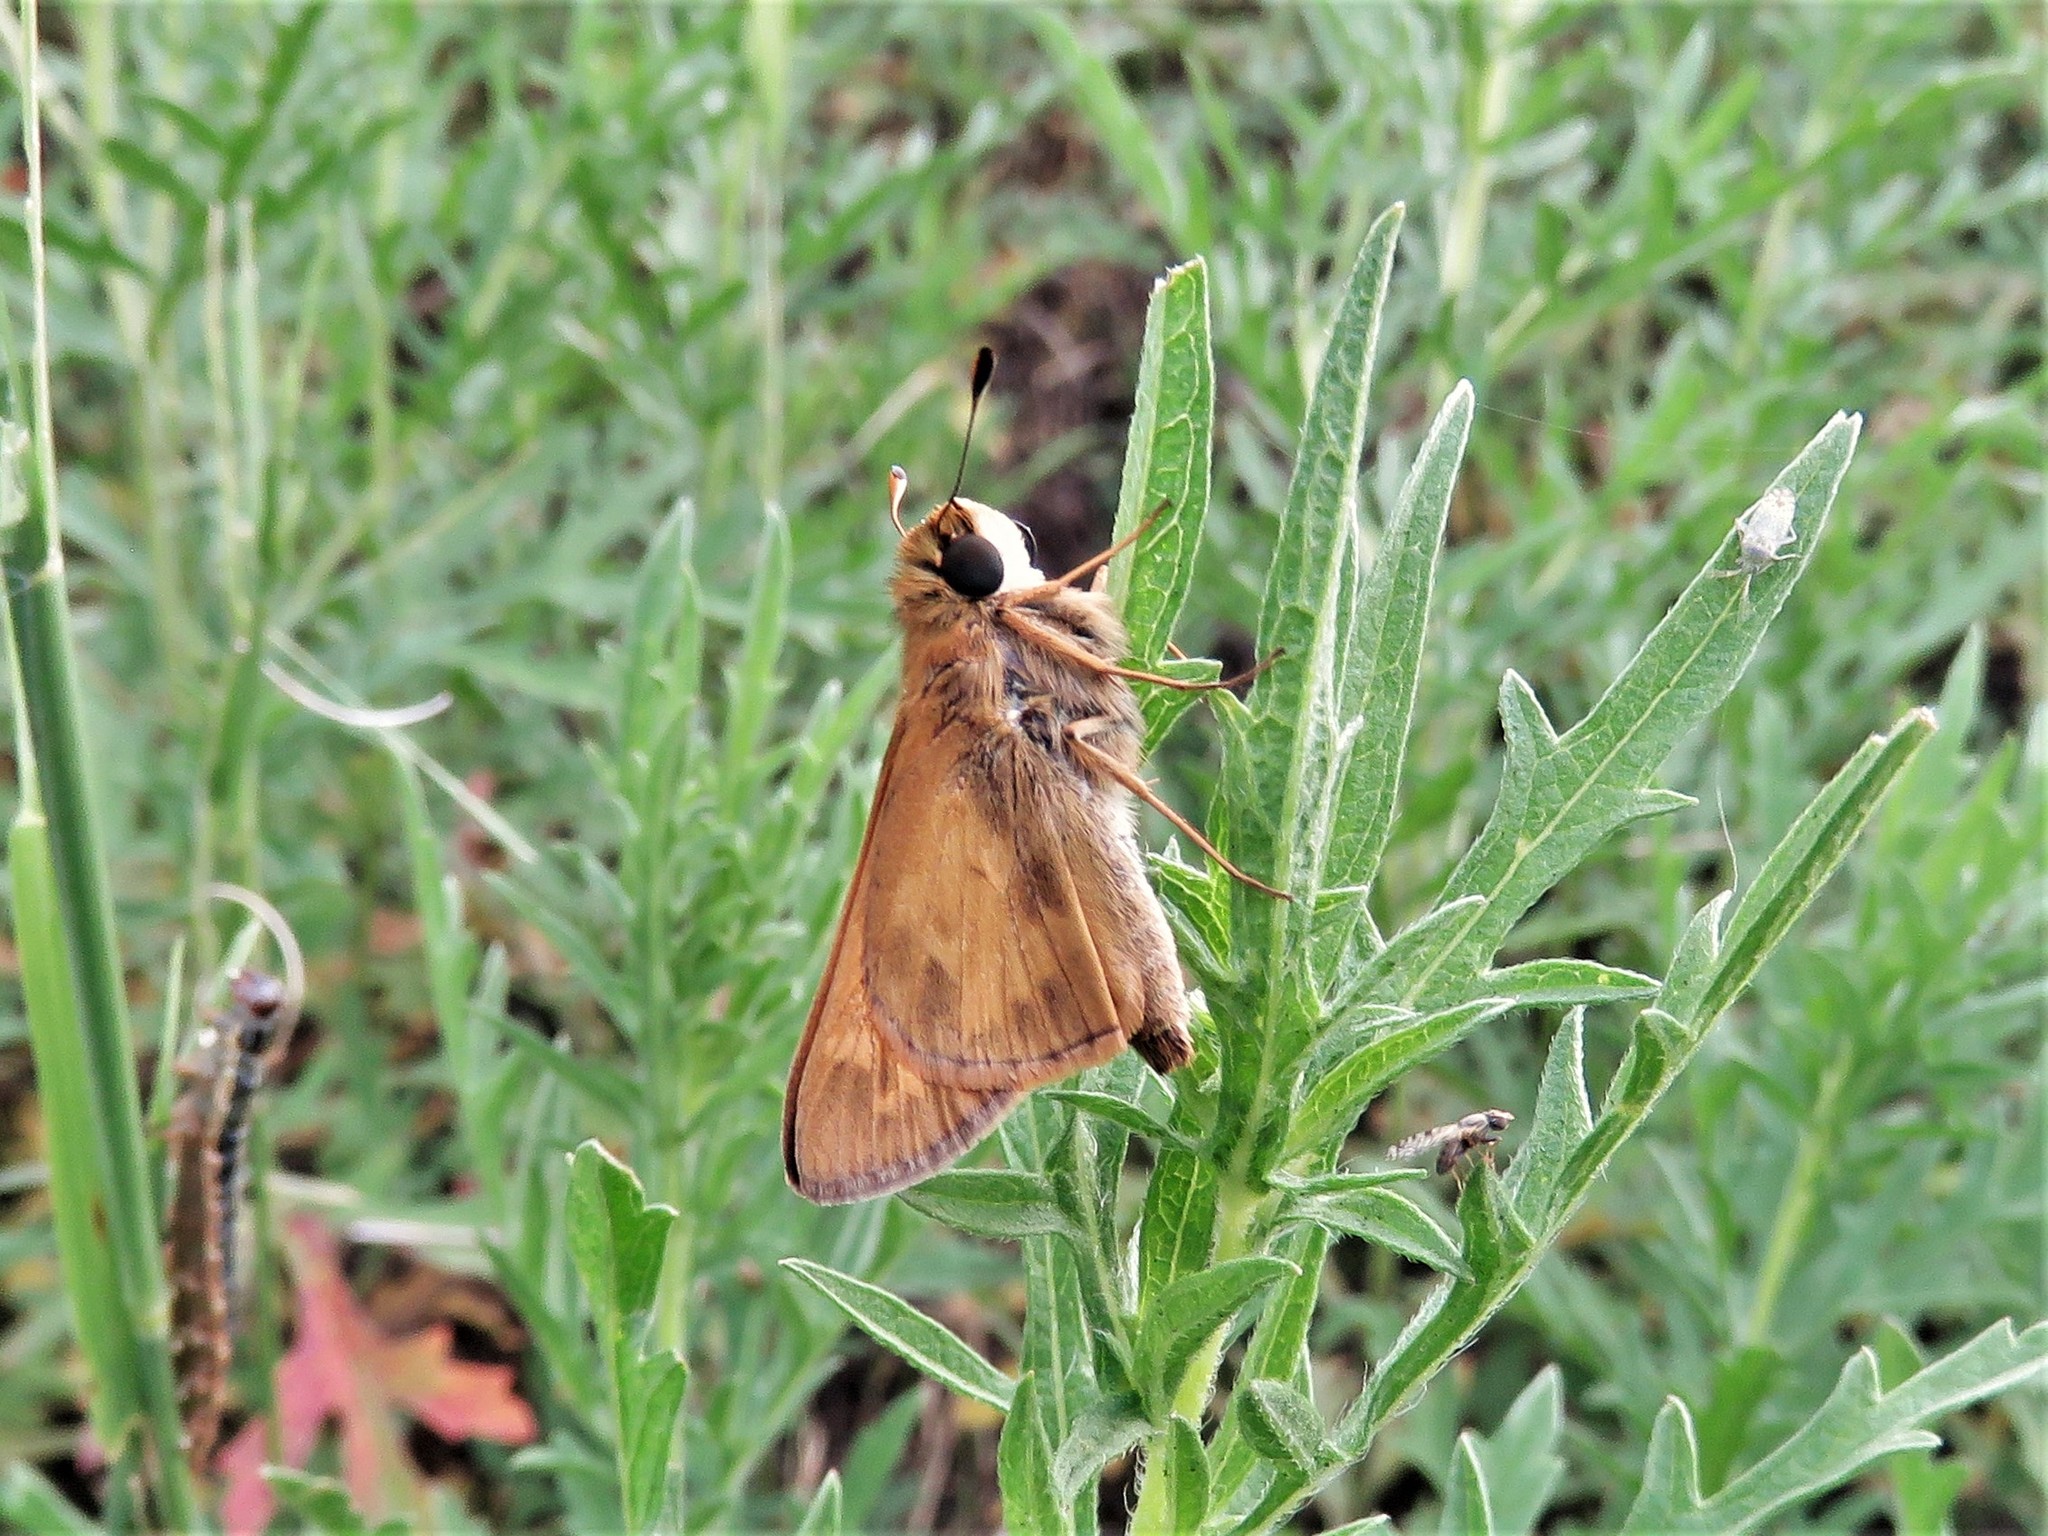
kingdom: Animalia
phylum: Arthropoda
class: Insecta
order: Lepidoptera
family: Hesperiidae
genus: Atalopedes
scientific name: Atalopedes
